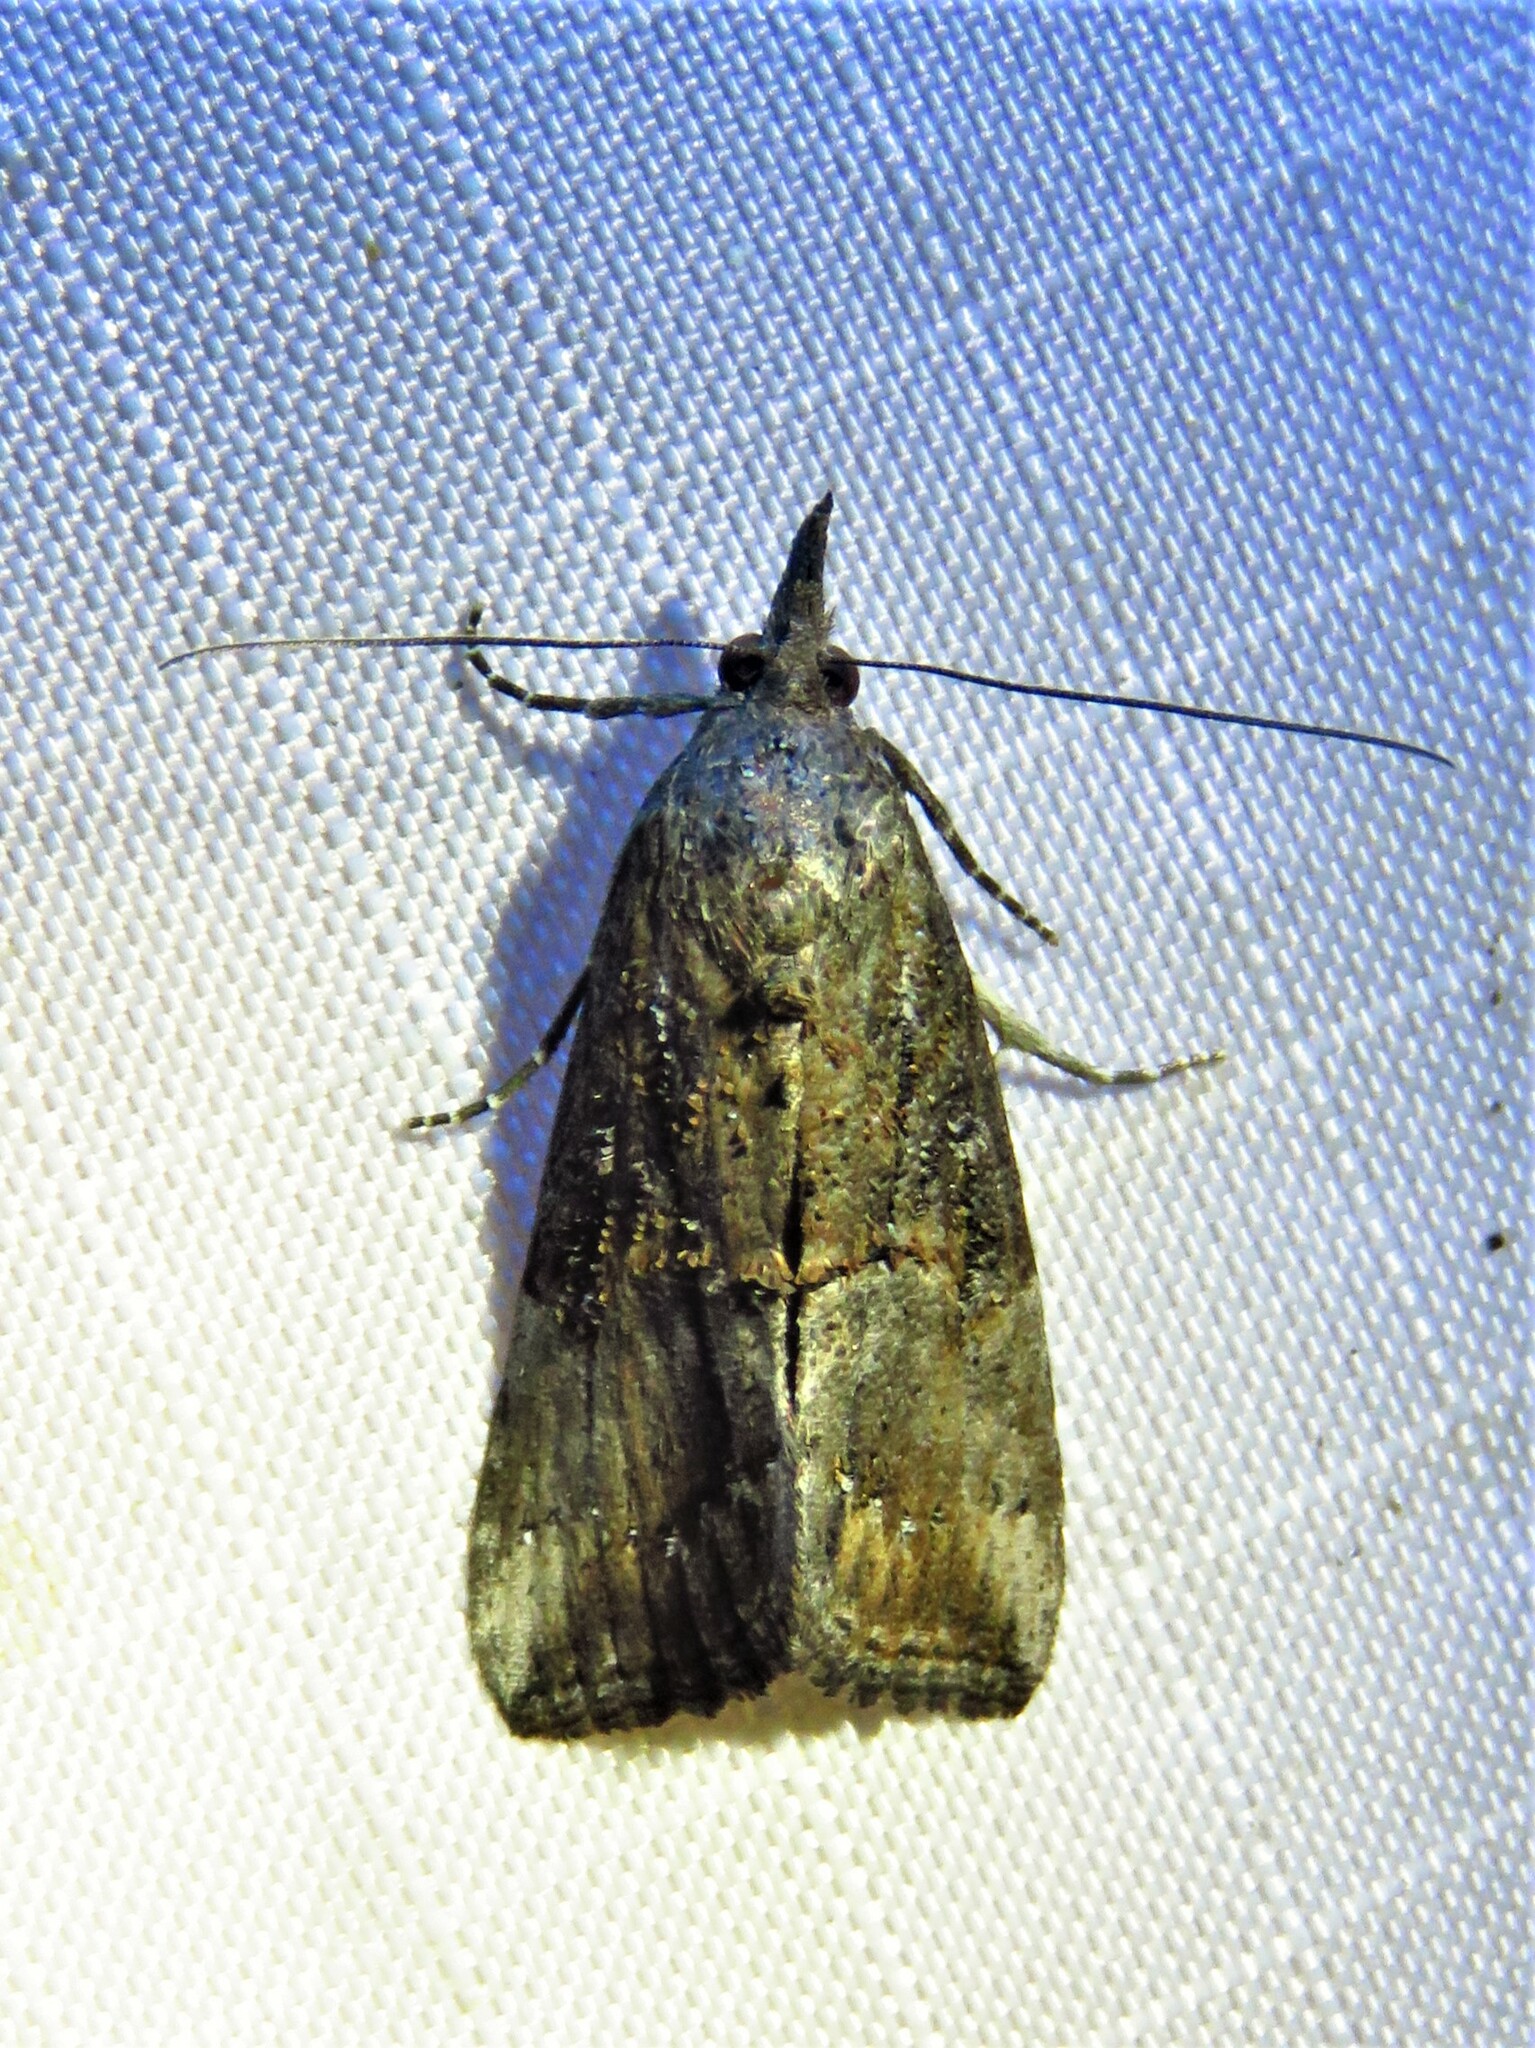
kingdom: Animalia
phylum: Arthropoda
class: Insecta
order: Lepidoptera
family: Erebidae
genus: Hypena
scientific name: Hypena scabra
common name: Green cloverworm
